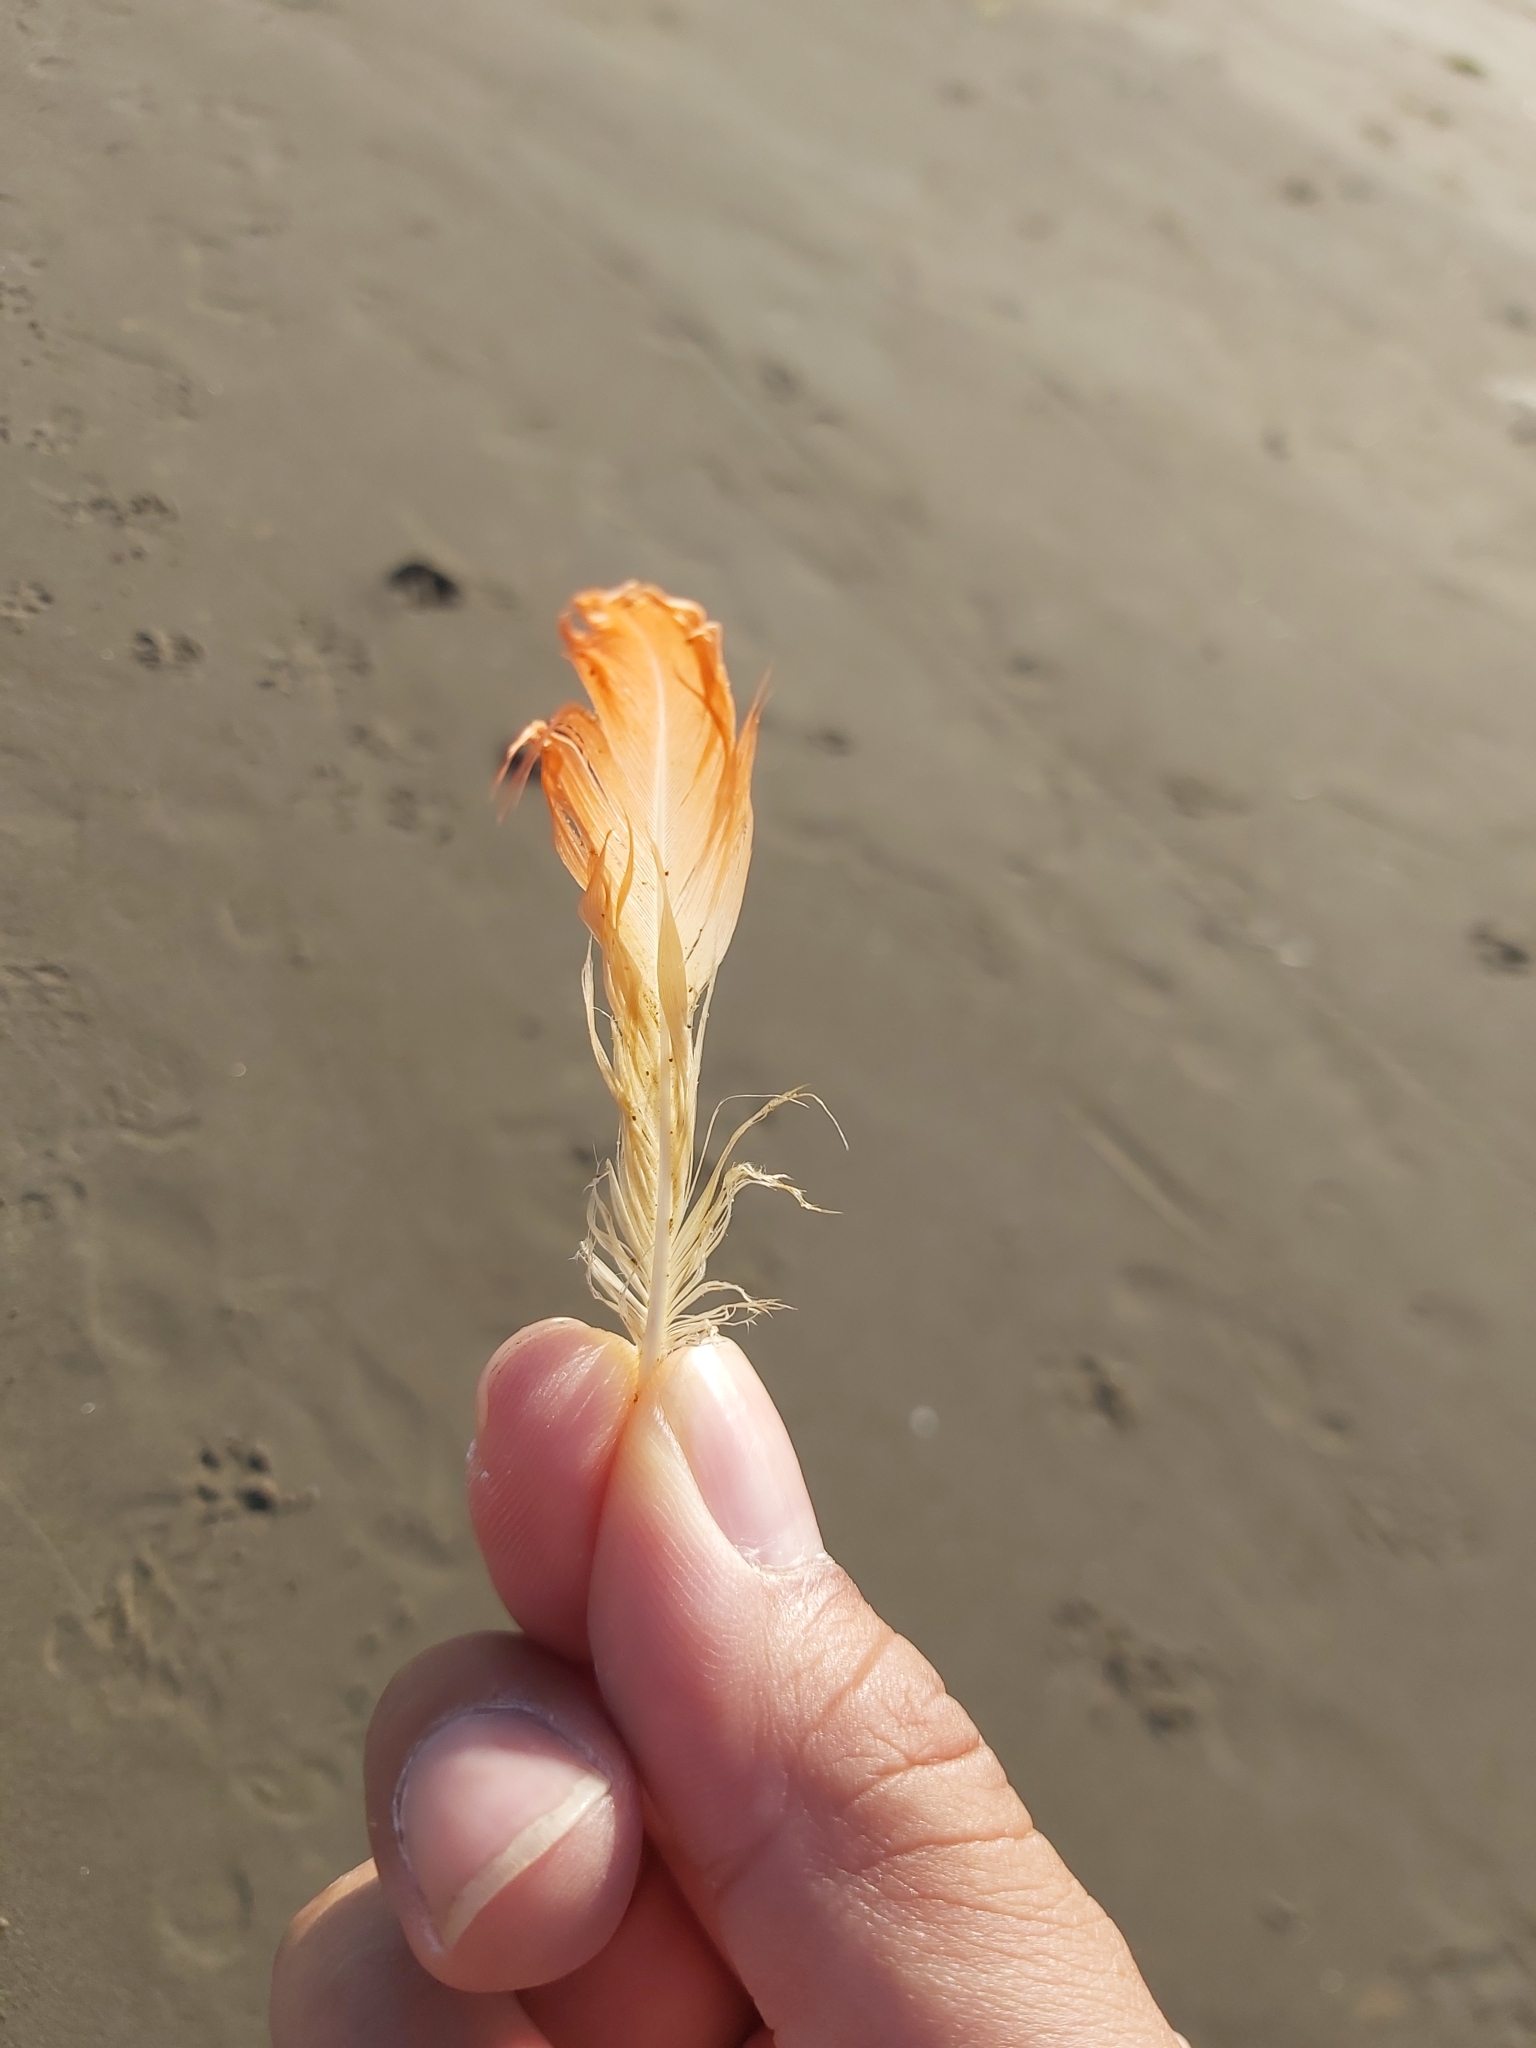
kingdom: Animalia
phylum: Chordata
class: Aves
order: Phoenicopteriformes
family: Phoenicopteridae
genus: Phoenicopterus
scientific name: Phoenicopterus chilensis
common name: Chilean flamingo
